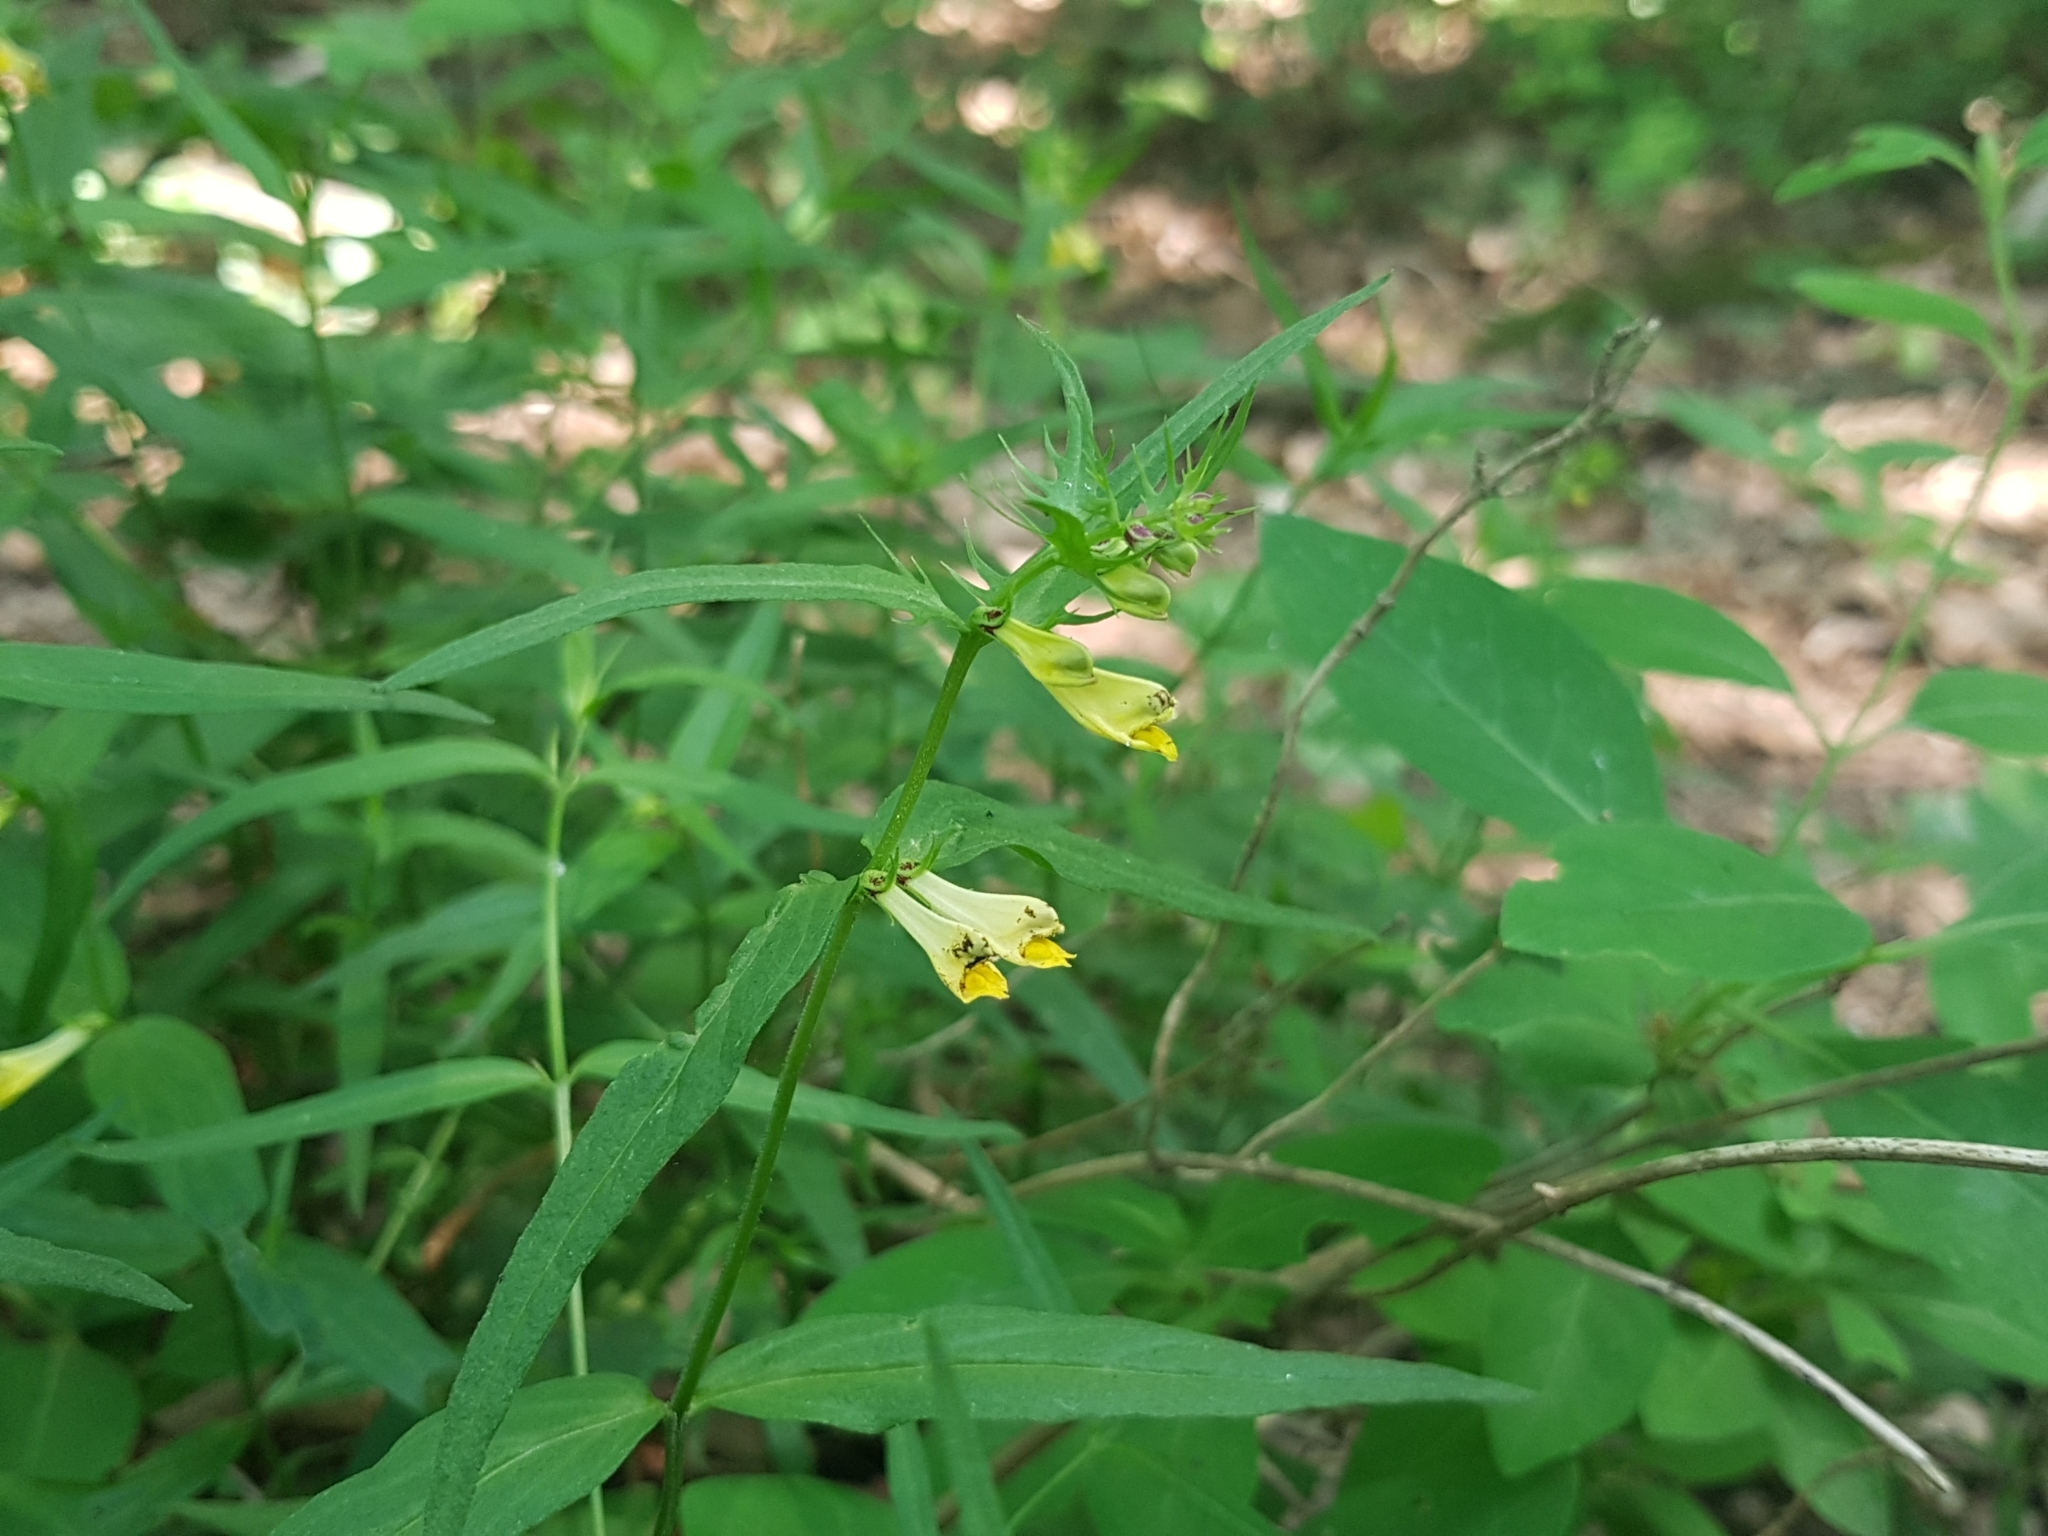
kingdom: Plantae
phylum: Tracheophyta
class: Magnoliopsida
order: Lamiales
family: Orobanchaceae
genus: Melampyrum
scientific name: Melampyrum pratense
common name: Common cow-wheat
